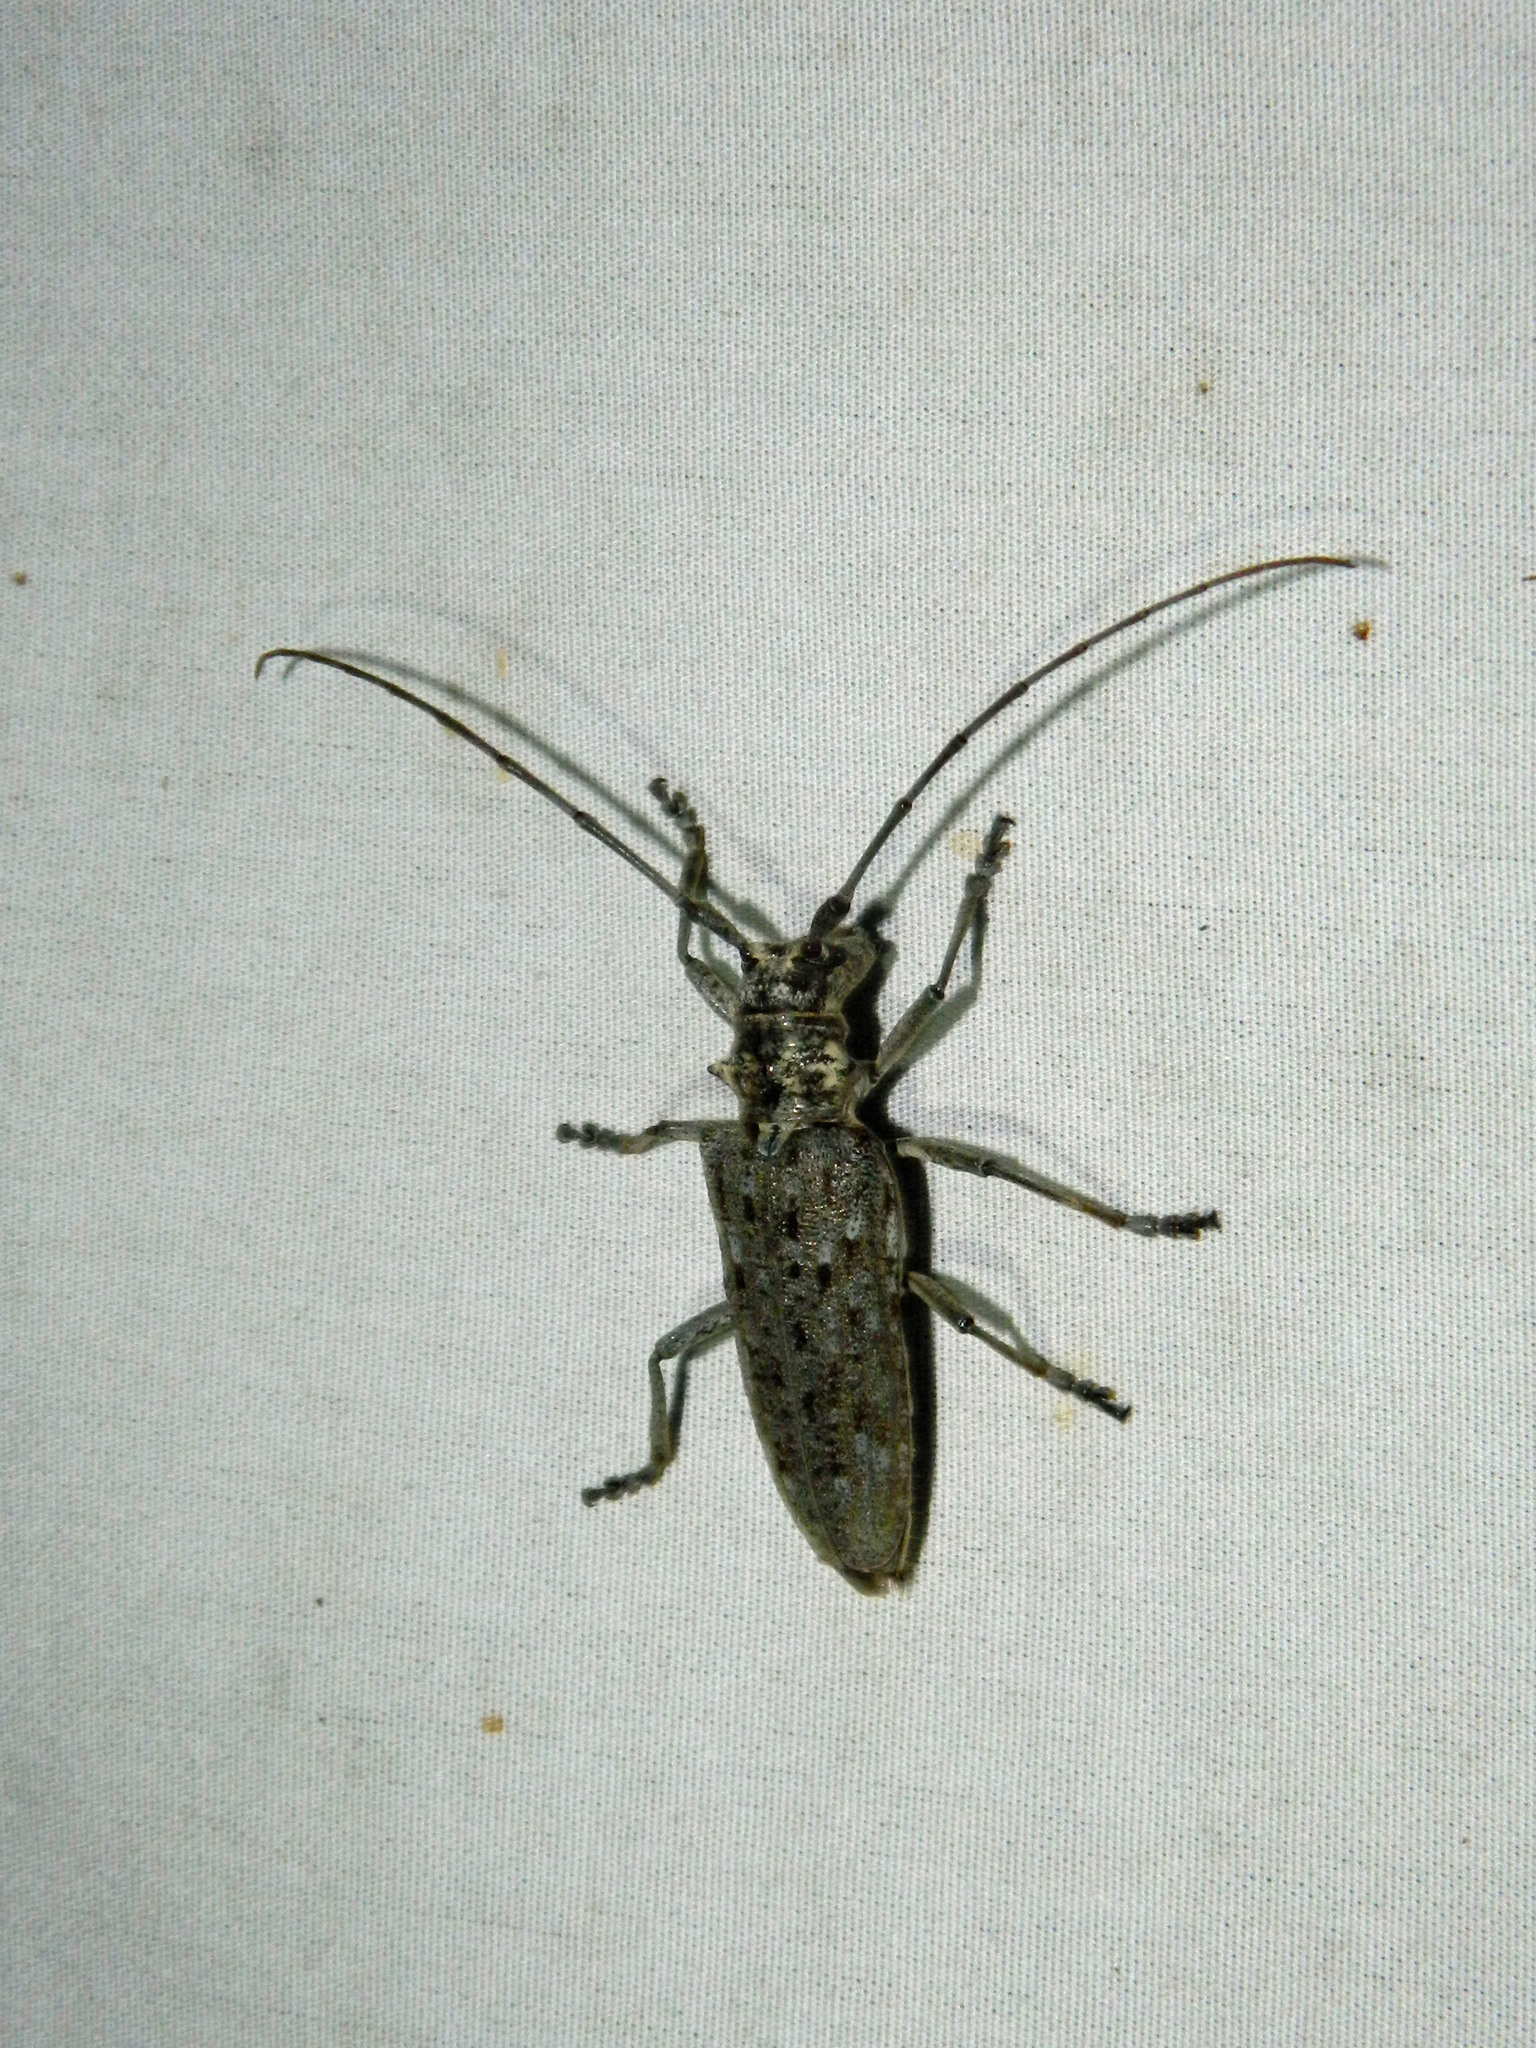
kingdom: Animalia
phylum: Arthropoda
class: Insecta
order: Coleoptera
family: Cerambycidae
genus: Monochamus
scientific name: Monochamus notatus
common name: Northeastern pine sawyer beetle
